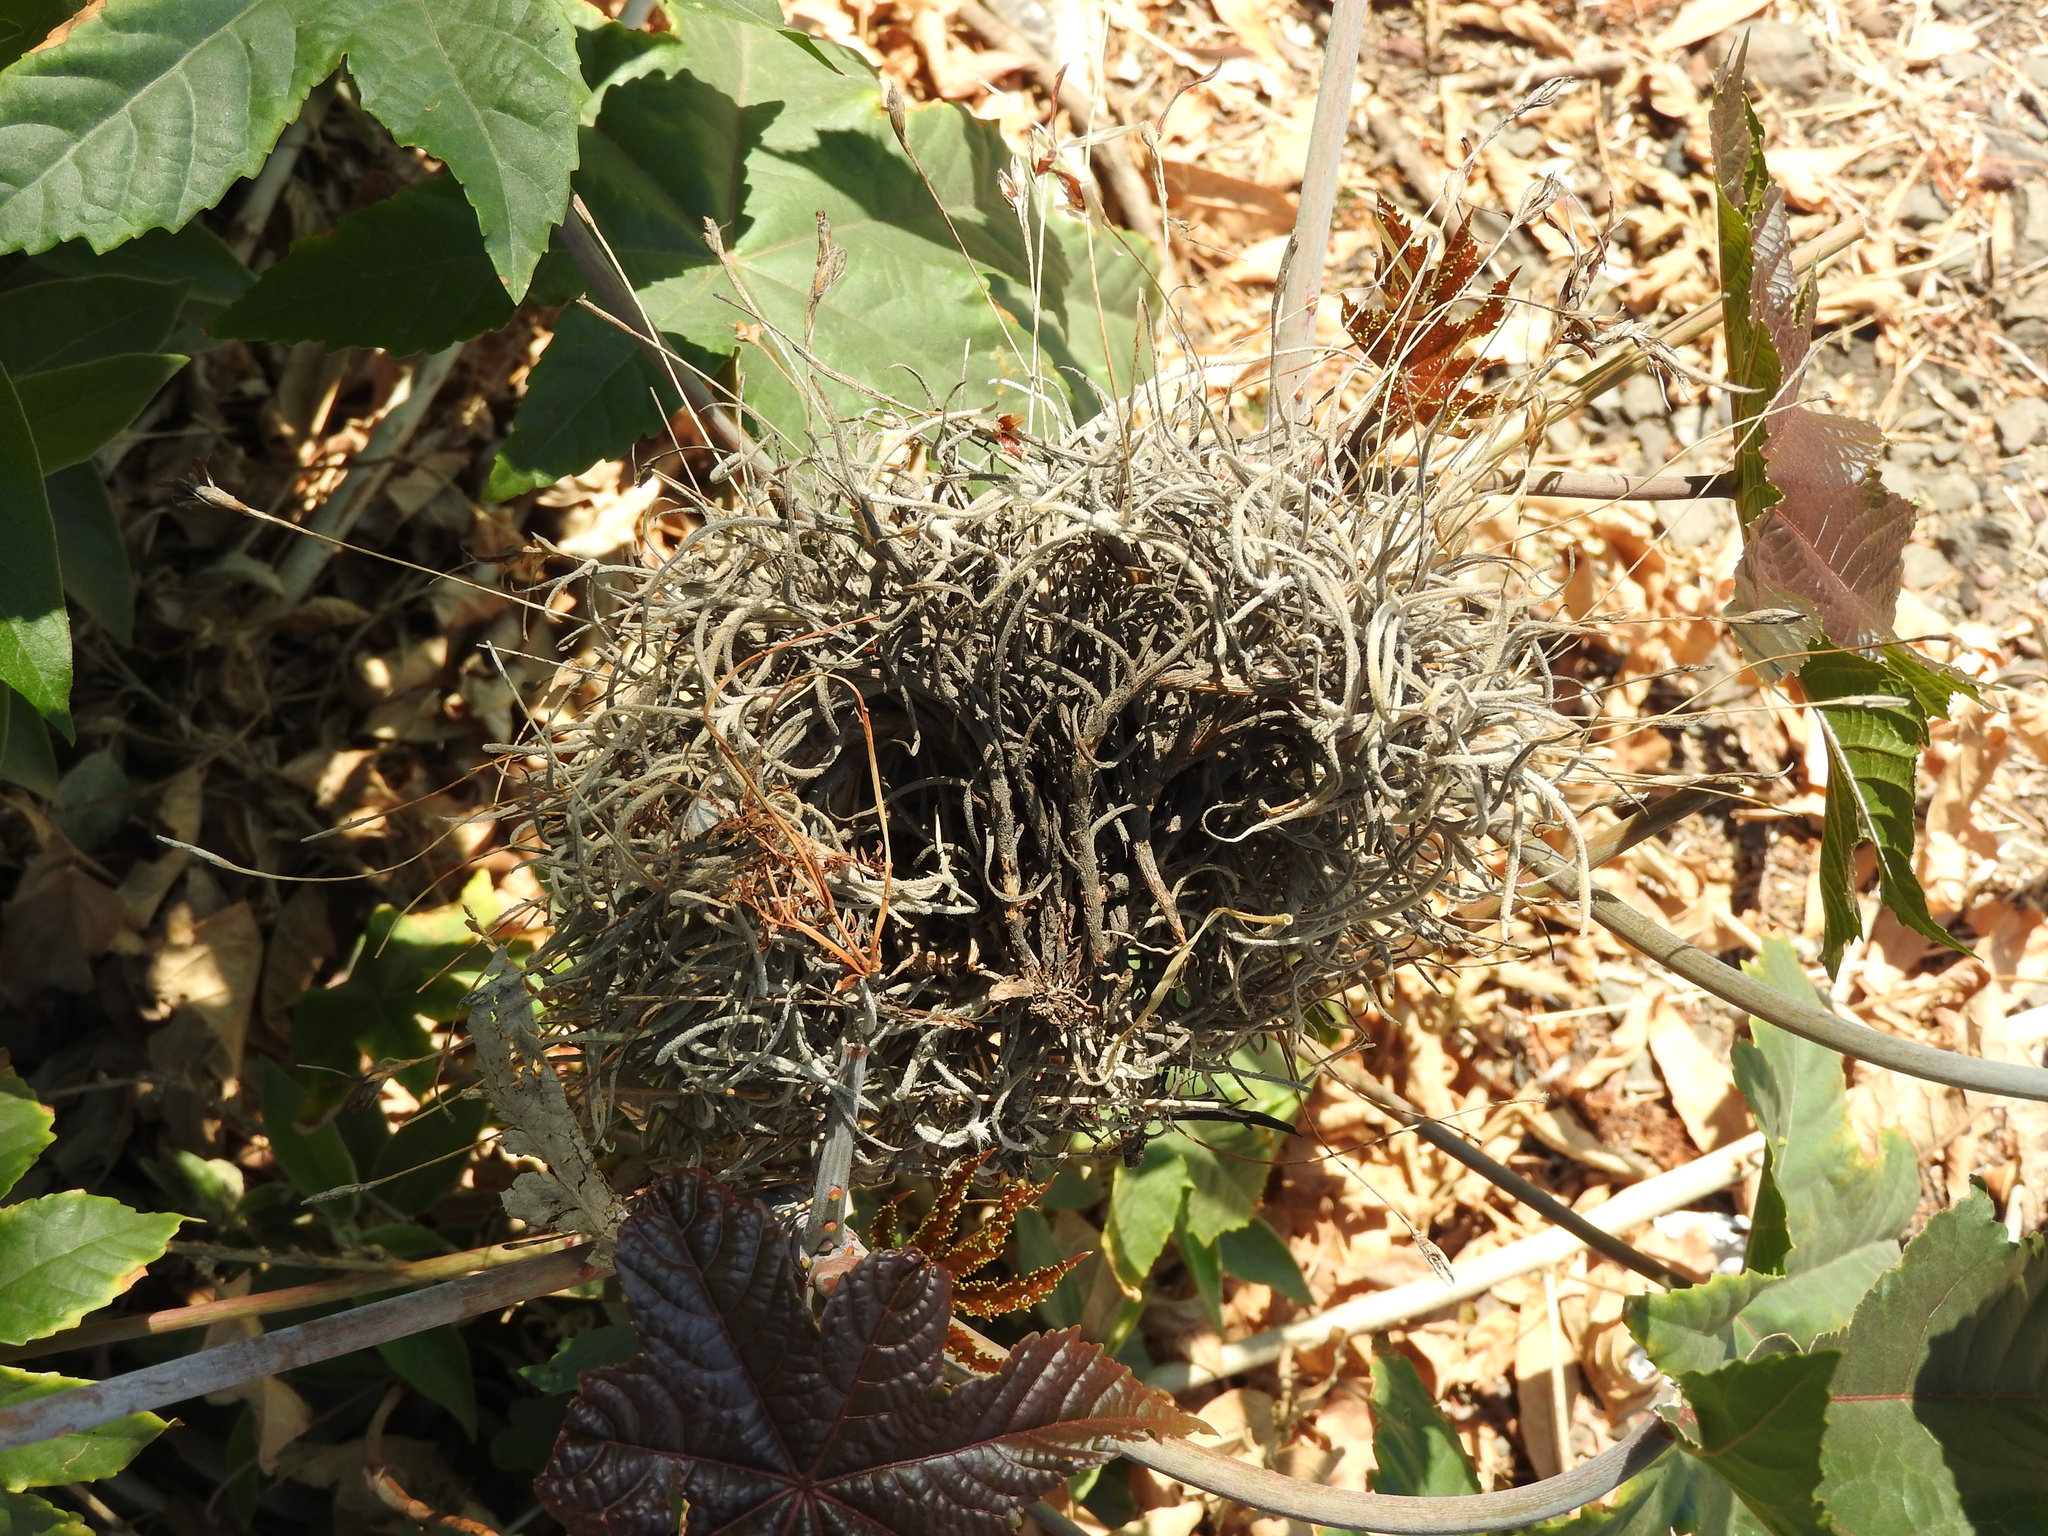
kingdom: Plantae
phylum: Tracheophyta
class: Liliopsida
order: Poales
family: Bromeliaceae
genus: Tillandsia
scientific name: Tillandsia recurvata
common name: Small ballmoss
